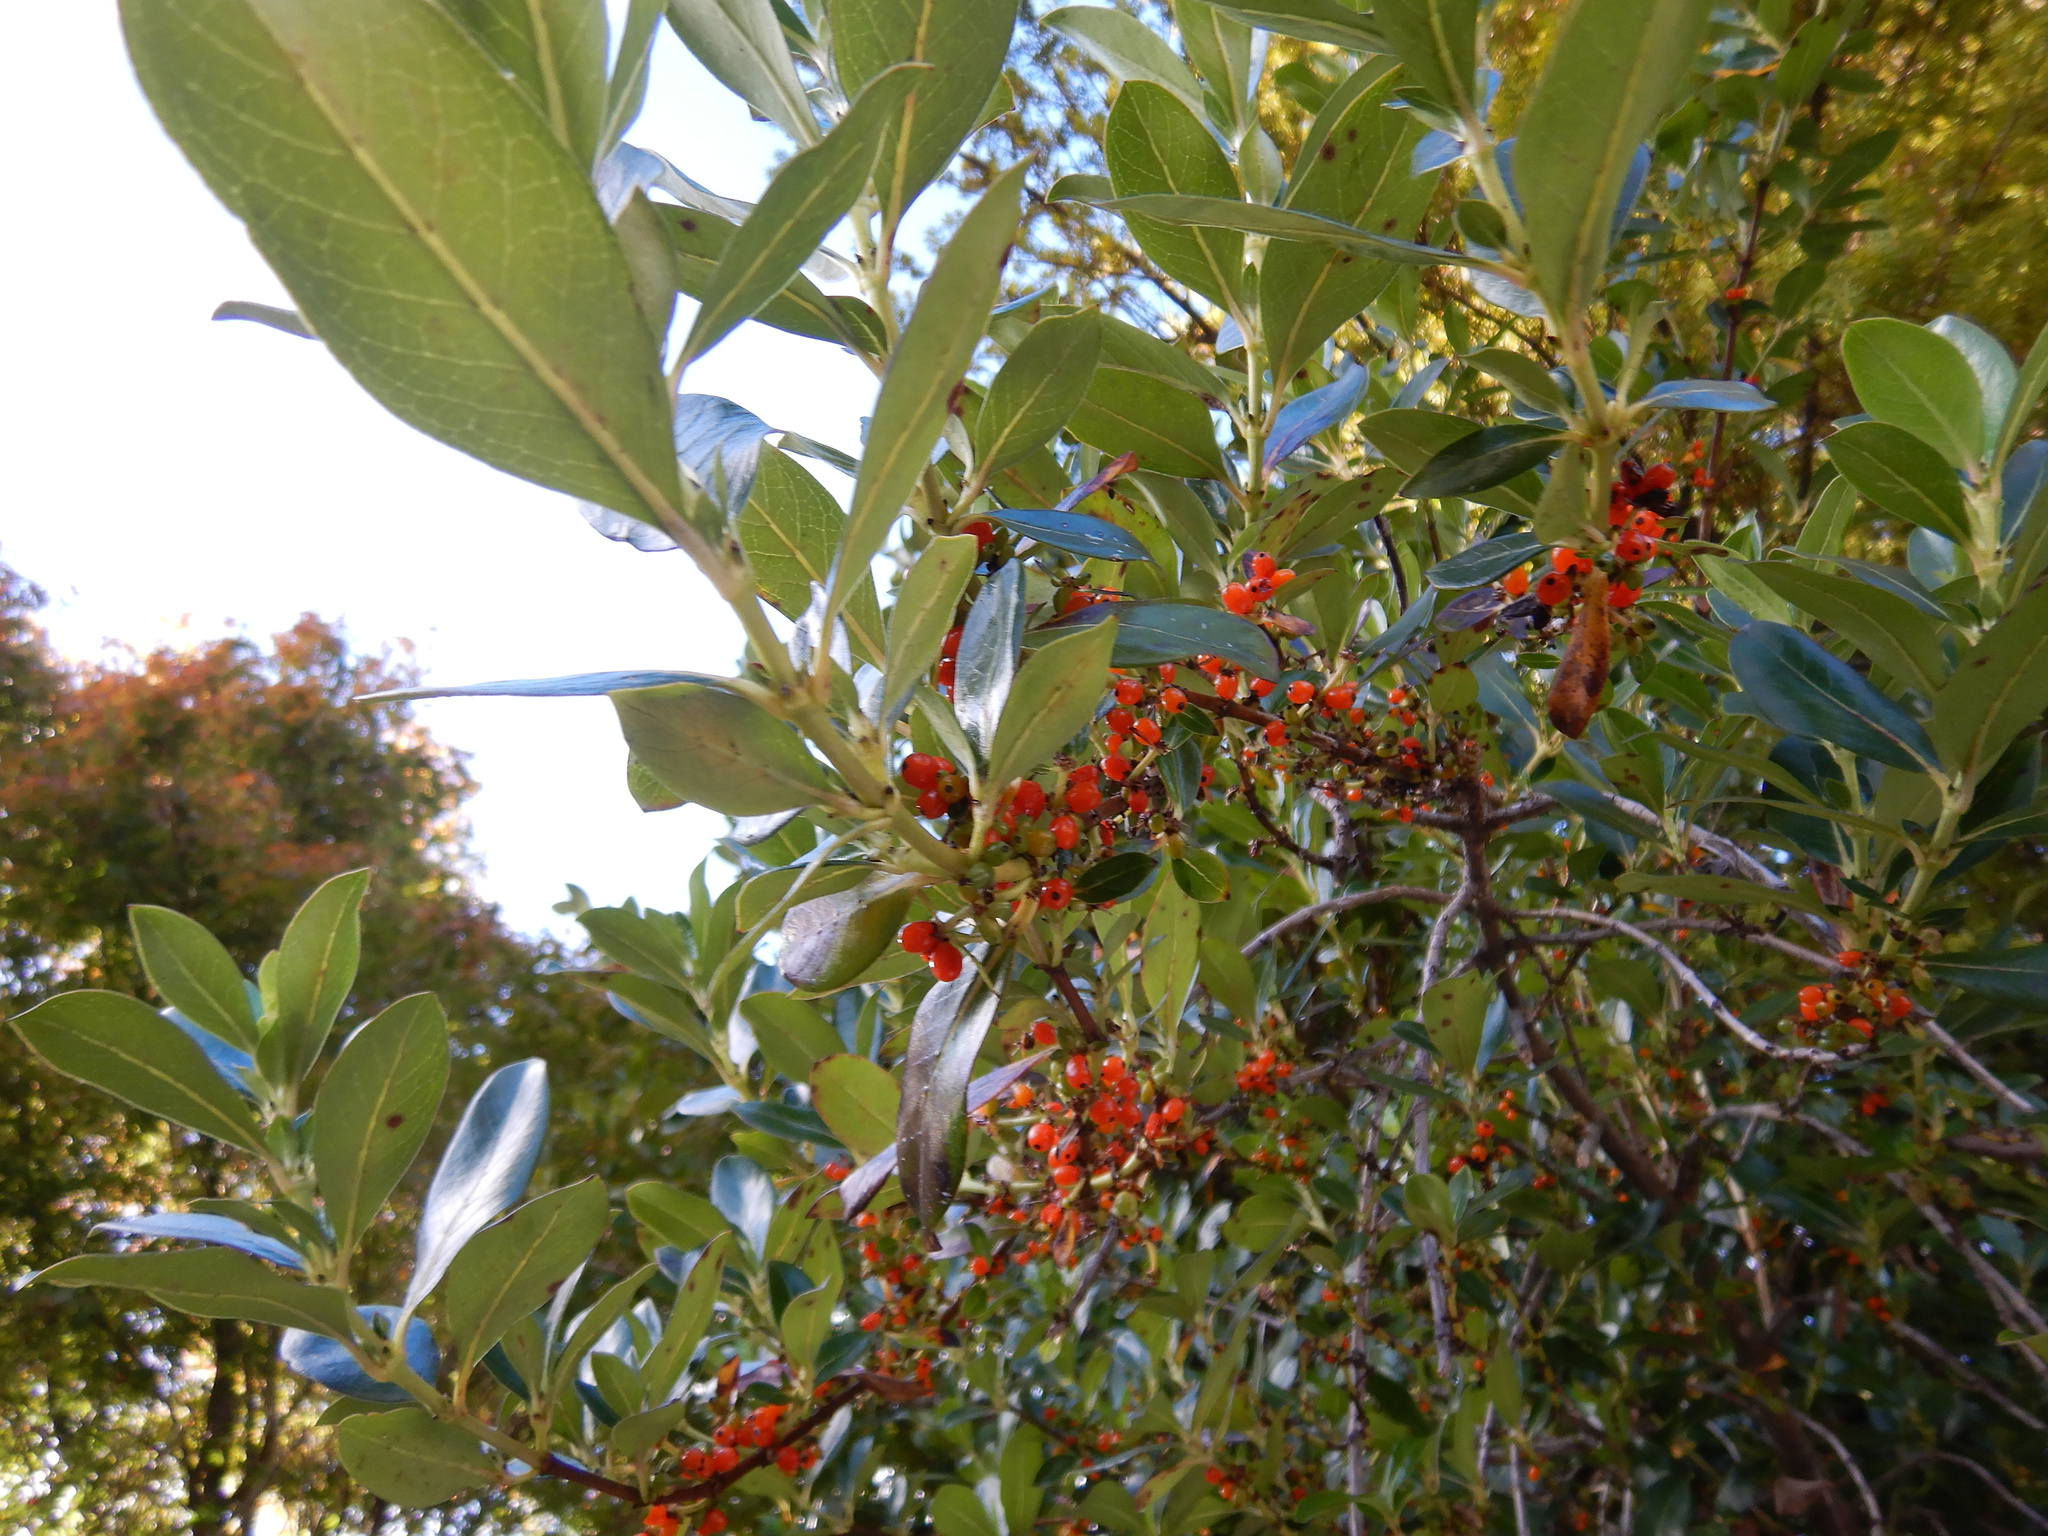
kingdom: Plantae
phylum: Tracheophyta
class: Magnoliopsida
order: Gentianales
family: Rubiaceae
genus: Coprosma
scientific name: Coprosma robusta
